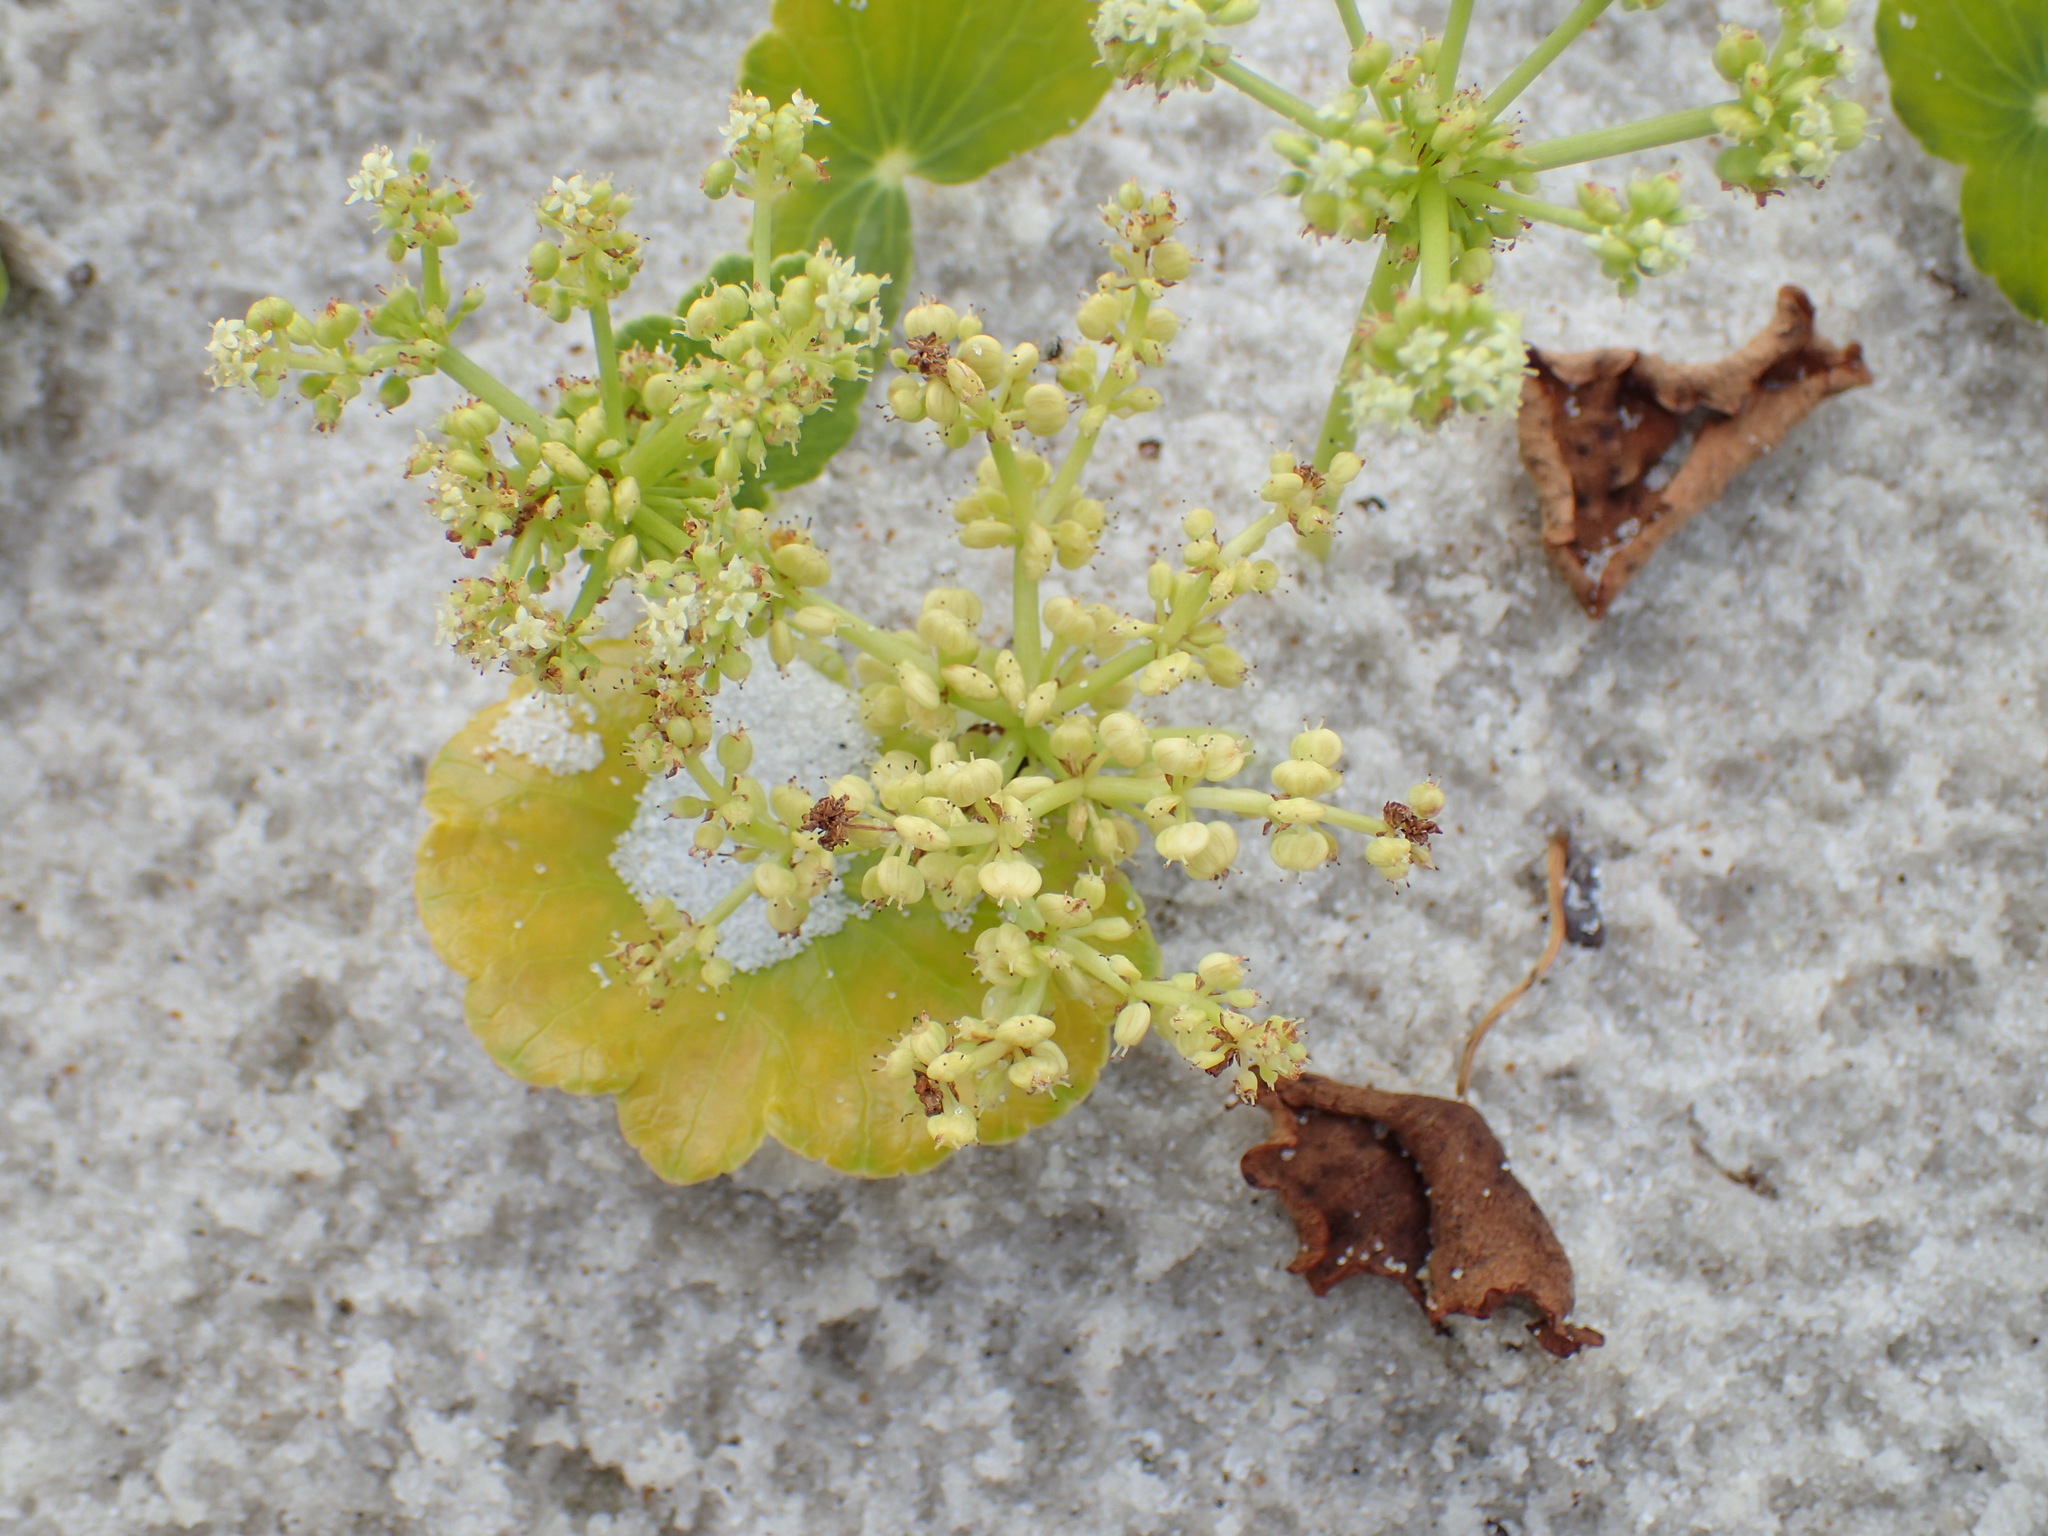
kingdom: Plantae
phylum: Tracheophyta
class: Magnoliopsida
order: Apiales
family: Araliaceae
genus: Hydrocotyle
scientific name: Hydrocotyle bonariensis
